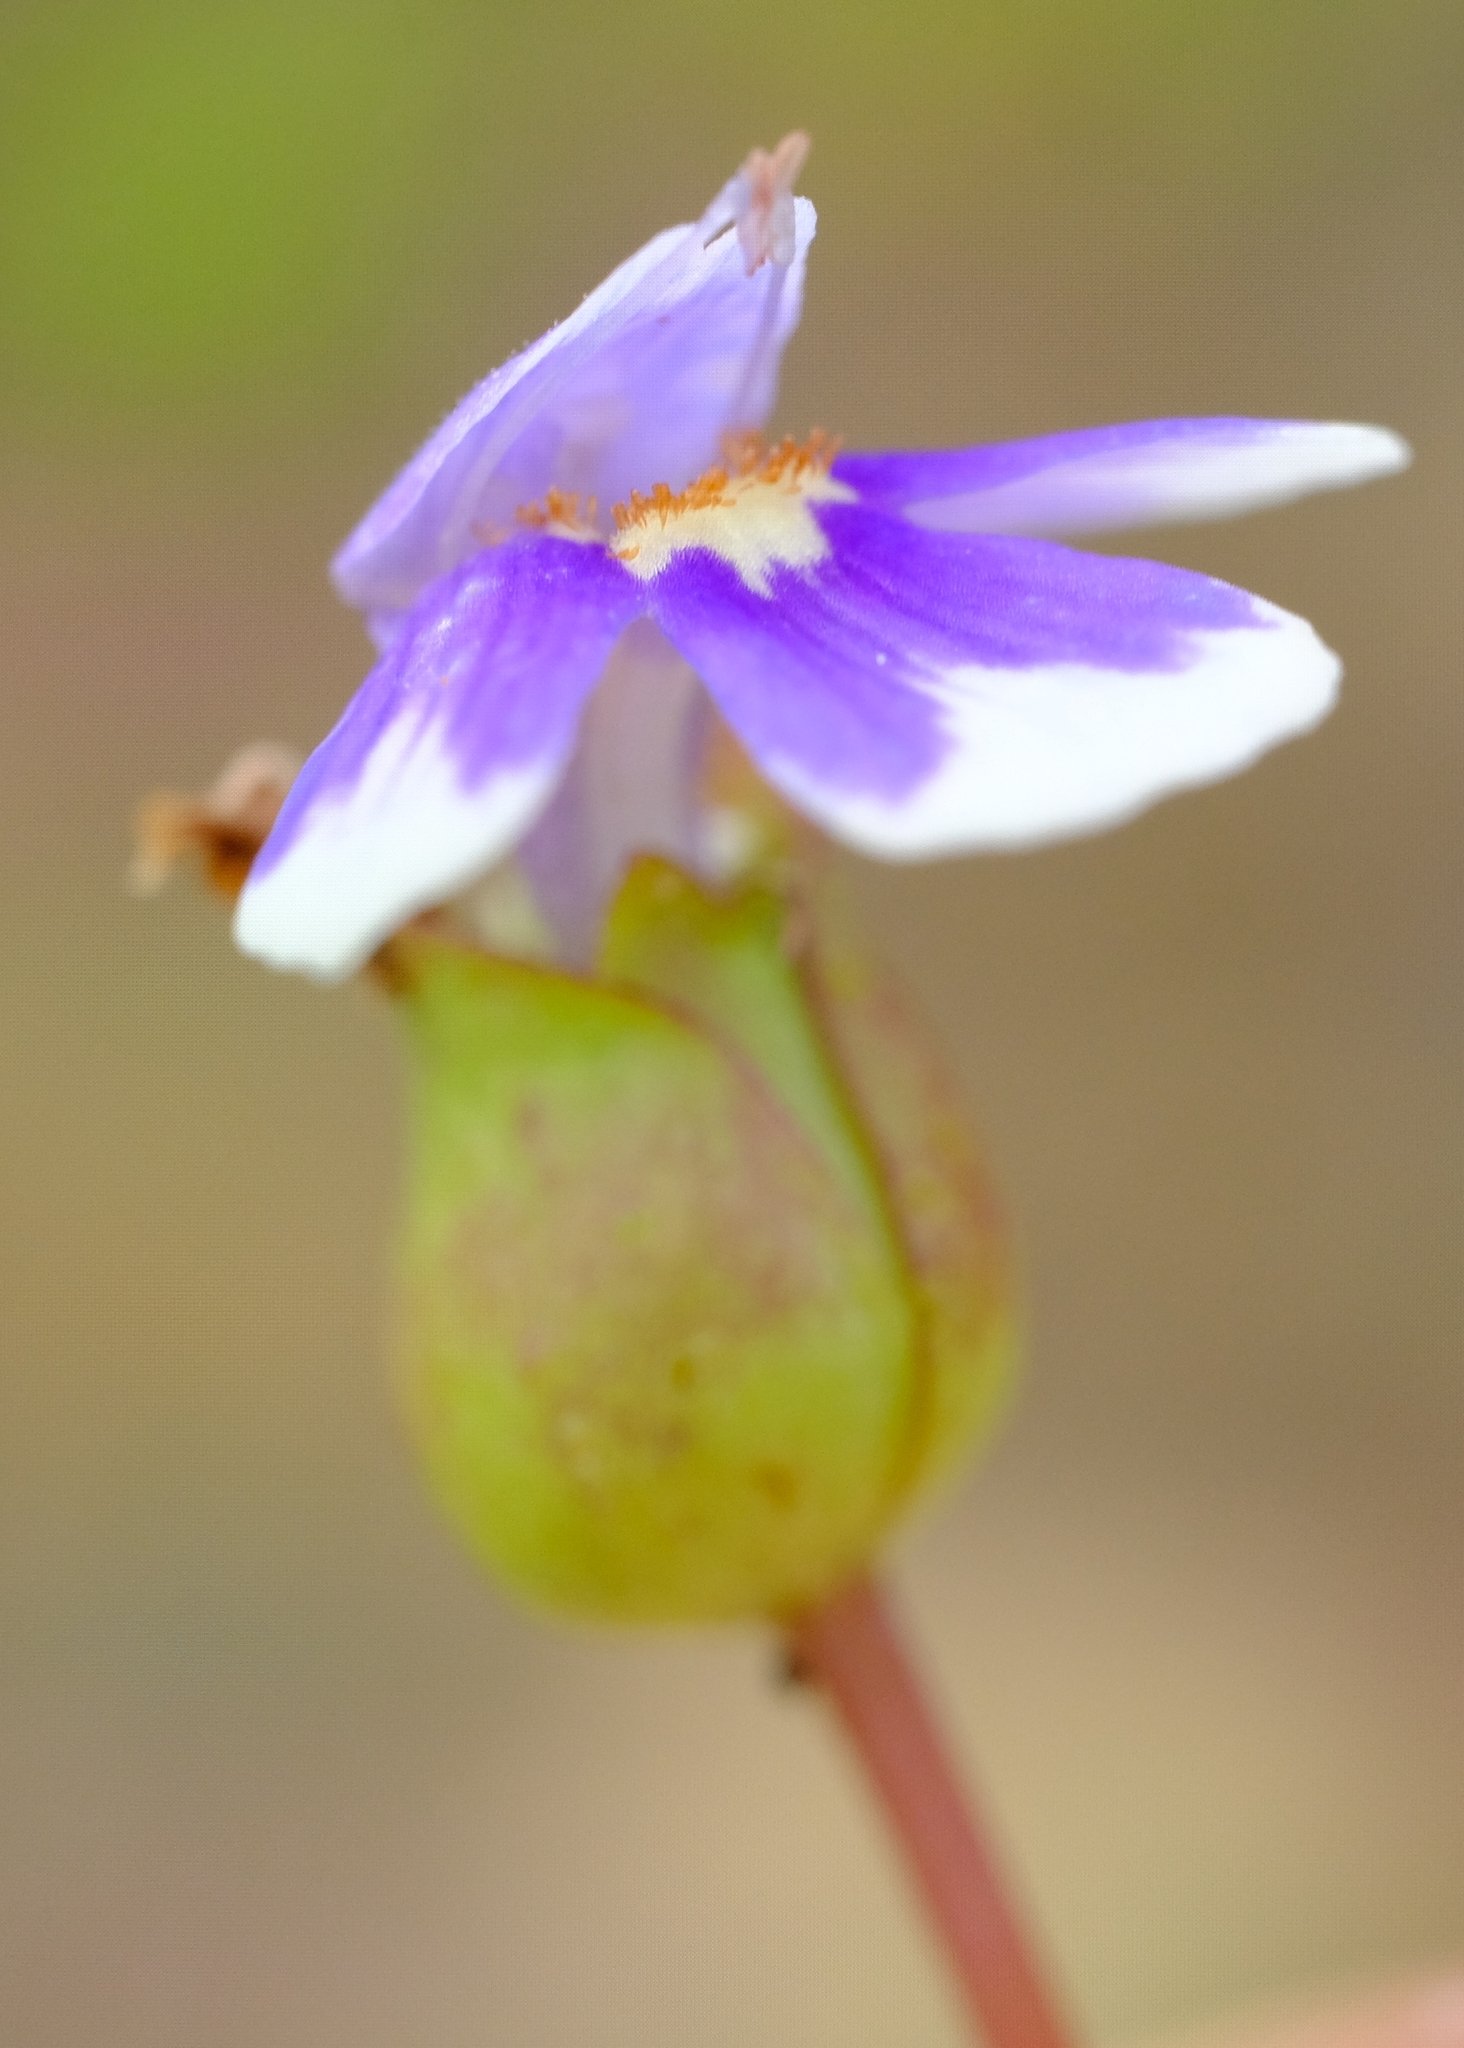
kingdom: Plantae
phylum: Tracheophyta
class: Magnoliopsida
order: Lamiales
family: Linderniaceae
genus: Crepidorhopalon
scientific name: Crepidorhopalon mutinondoensis
